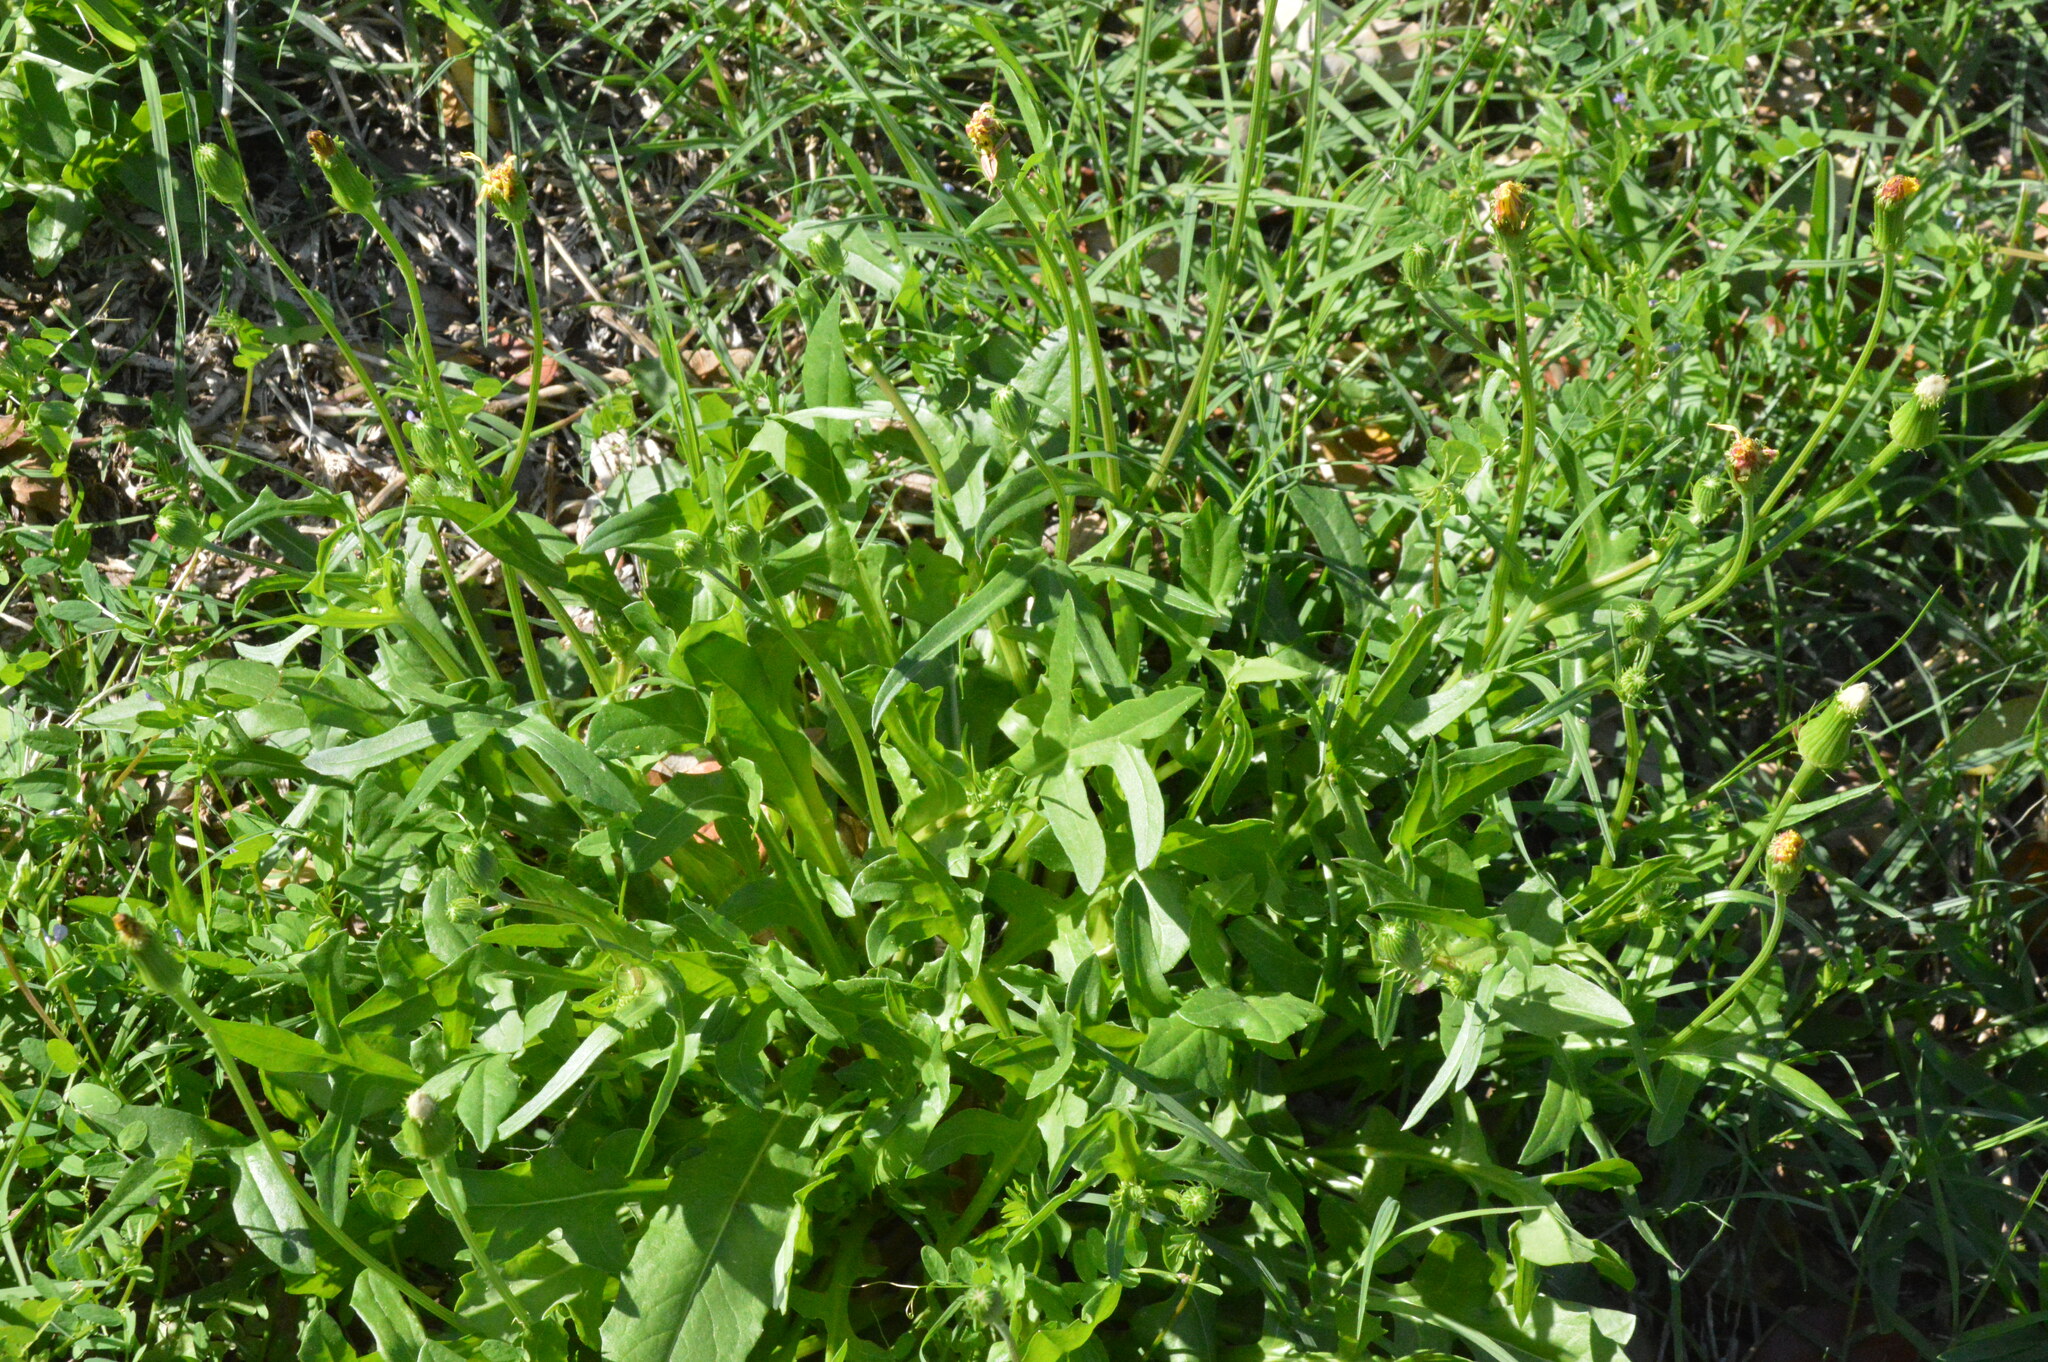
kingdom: Plantae
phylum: Tracheophyta
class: Magnoliopsida
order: Asterales
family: Asteraceae
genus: Pyrrhopappus
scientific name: Pyrrhopappus pauciflorus
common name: Texas false dandelion
